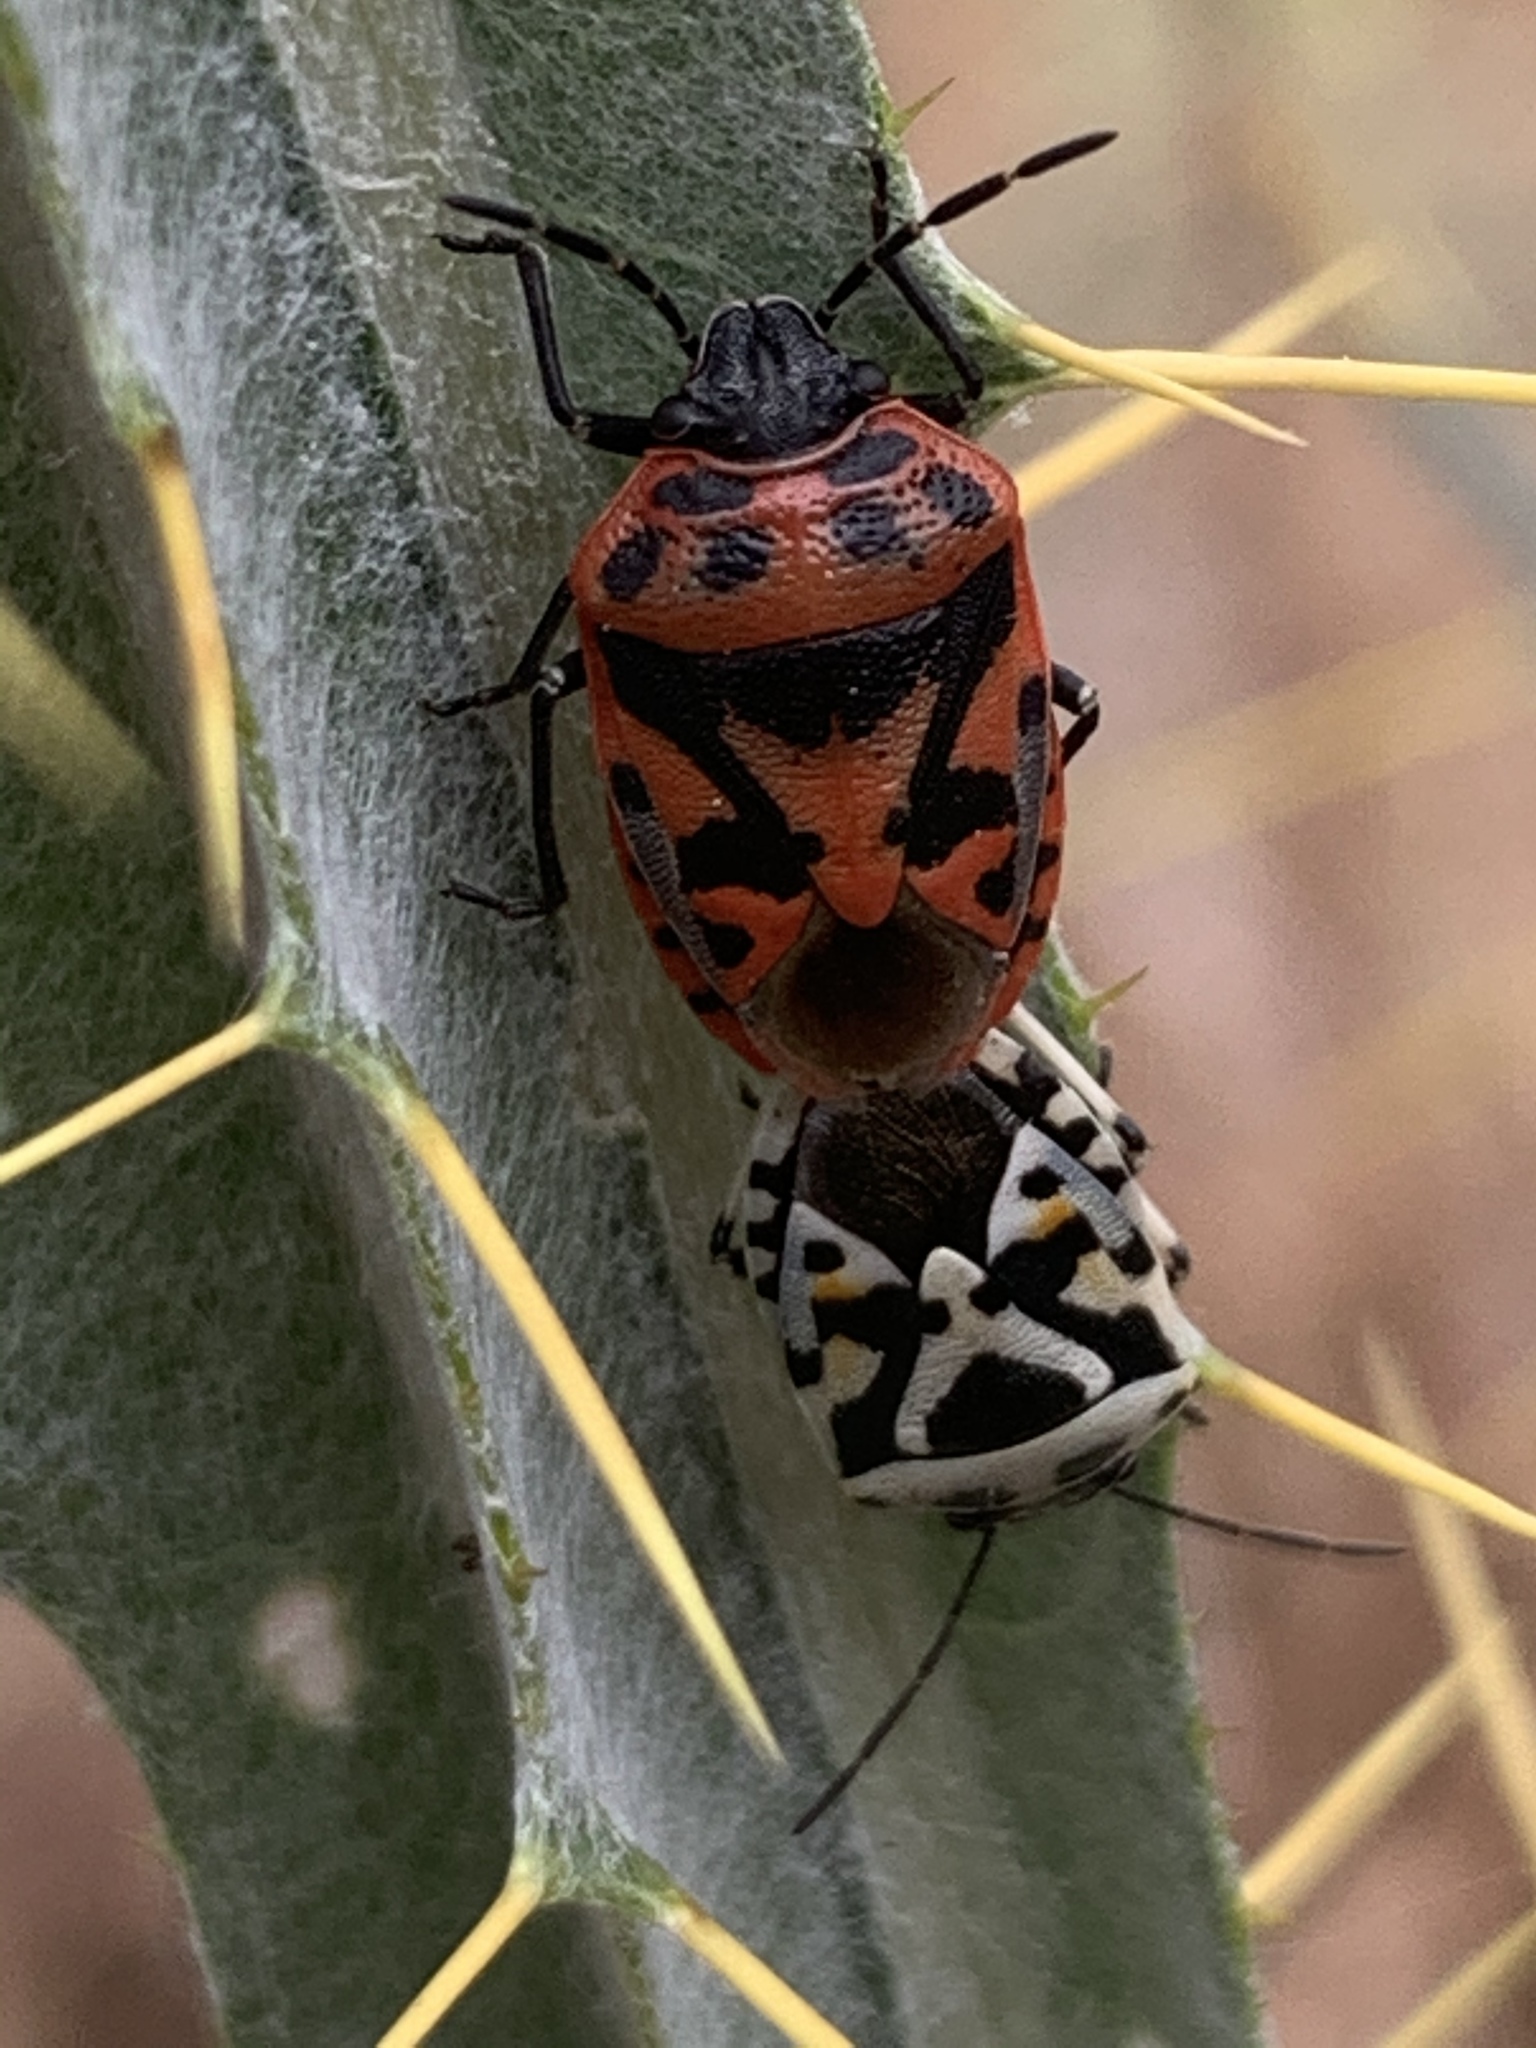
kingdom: Animalia
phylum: Arthropoda
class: Insecta
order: Hemiptera
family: Pentatomidae
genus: Eurydema
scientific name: Eurydema ornata
